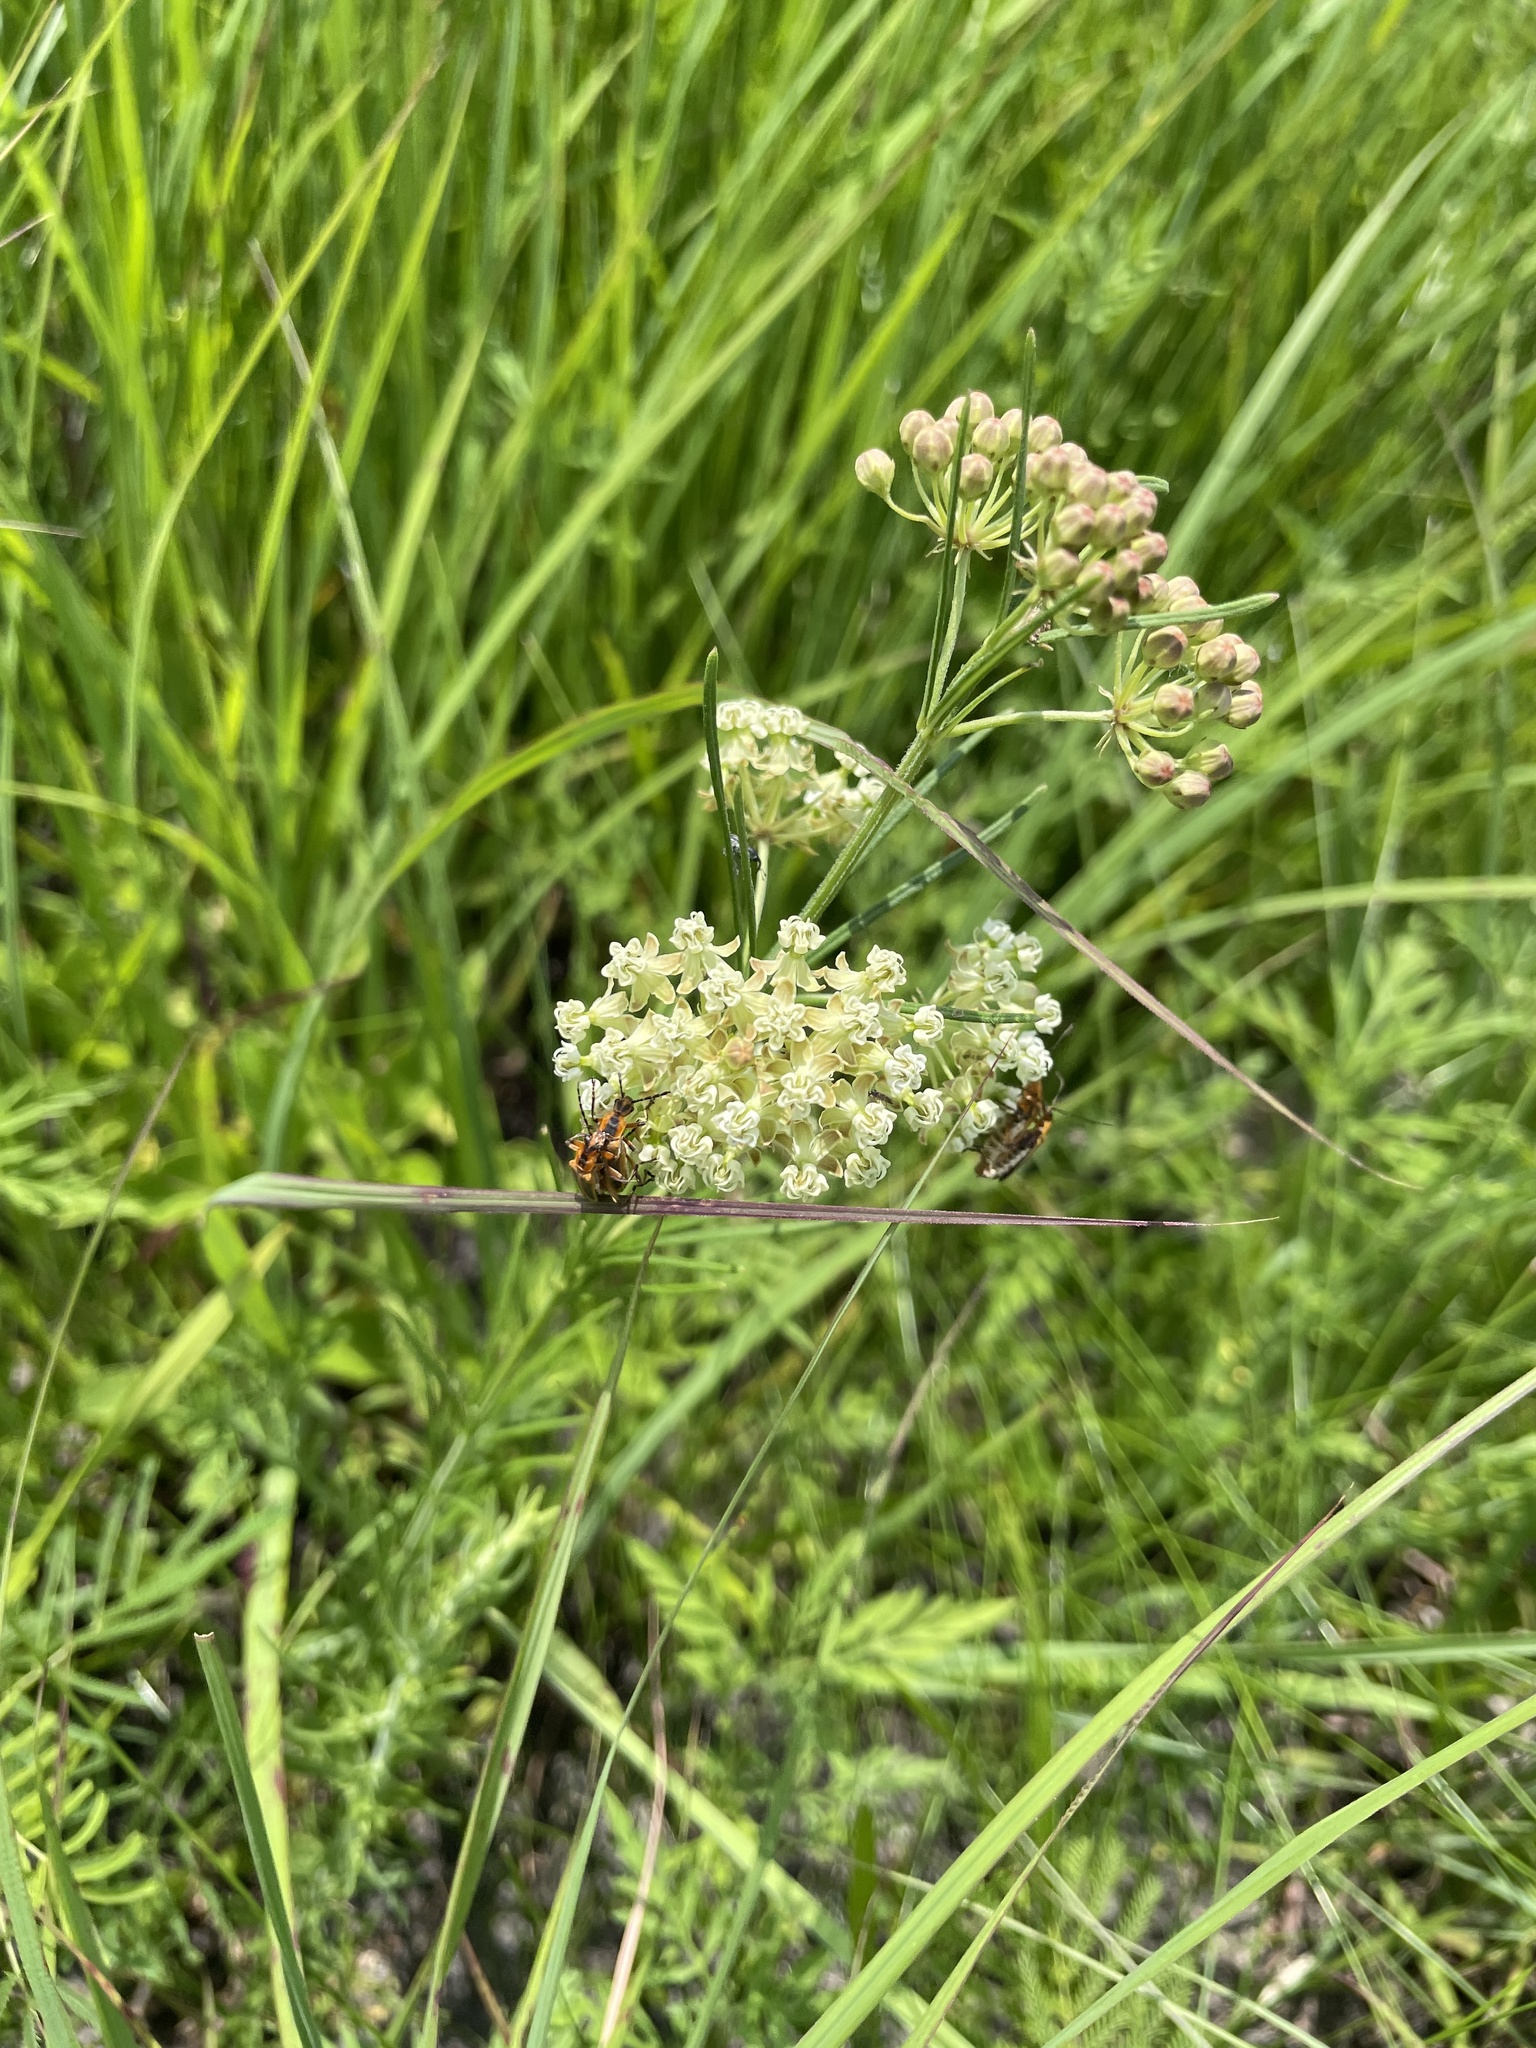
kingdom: Plantae
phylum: Tracheophyta
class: Magnoliopsida
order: Gentianales
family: Apocynaceae
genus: Asclepias
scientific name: Asclepias verticillata
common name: Eastern whorled milkweed
